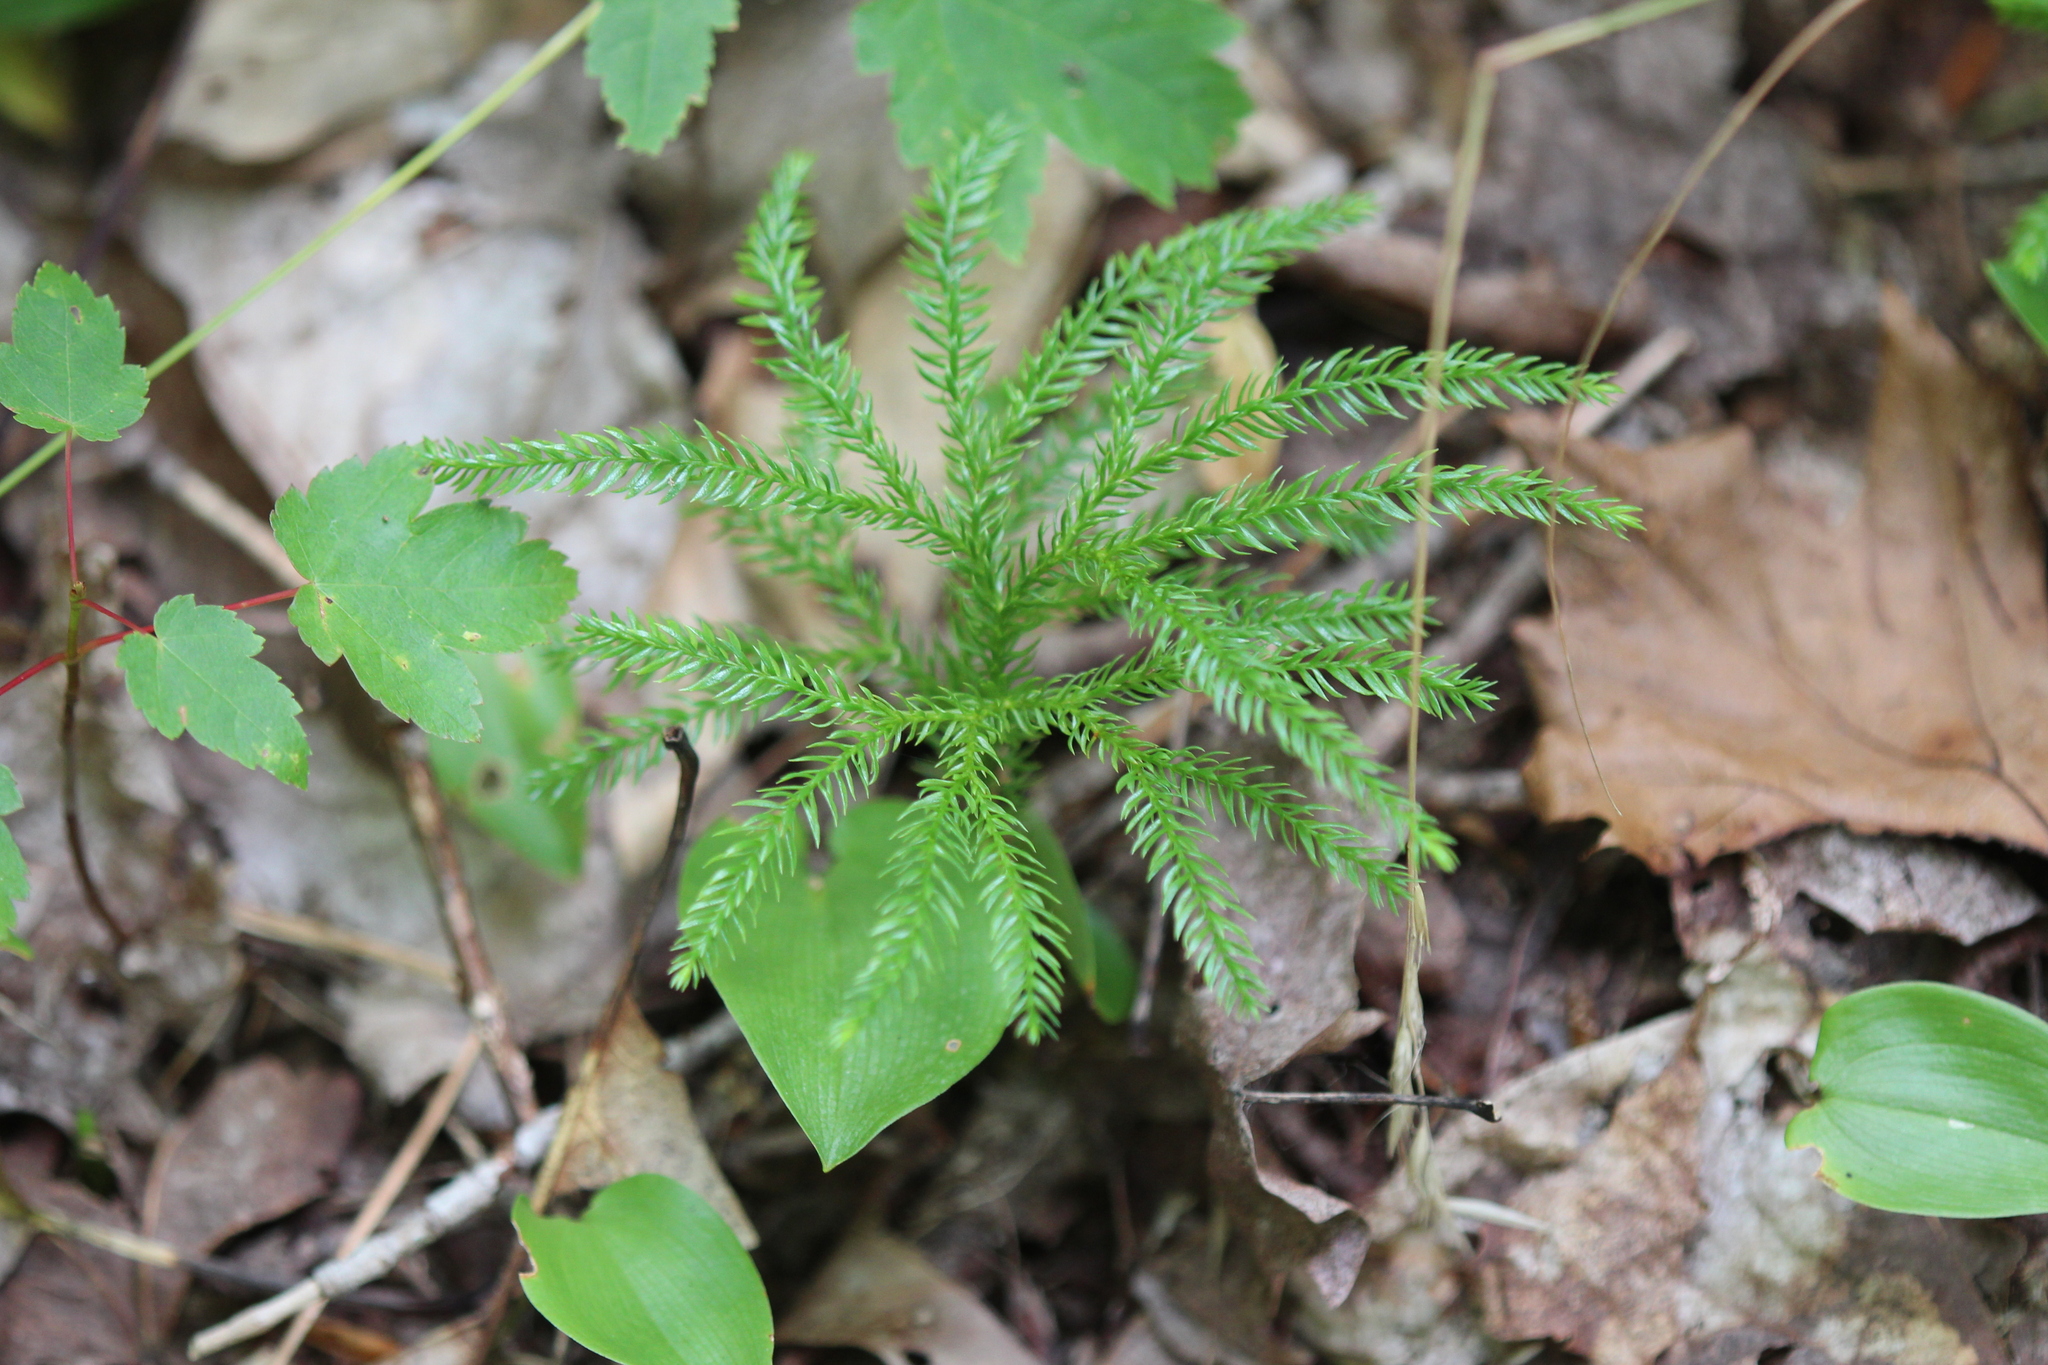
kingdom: Plantae
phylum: Tracheophyta
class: Lycopodiopsida
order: Lycopodiales
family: Lycopodiaceae
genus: Dendrolycopodium
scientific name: Dendrolycopodium dendroideum
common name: Northern tree-clubmoss
